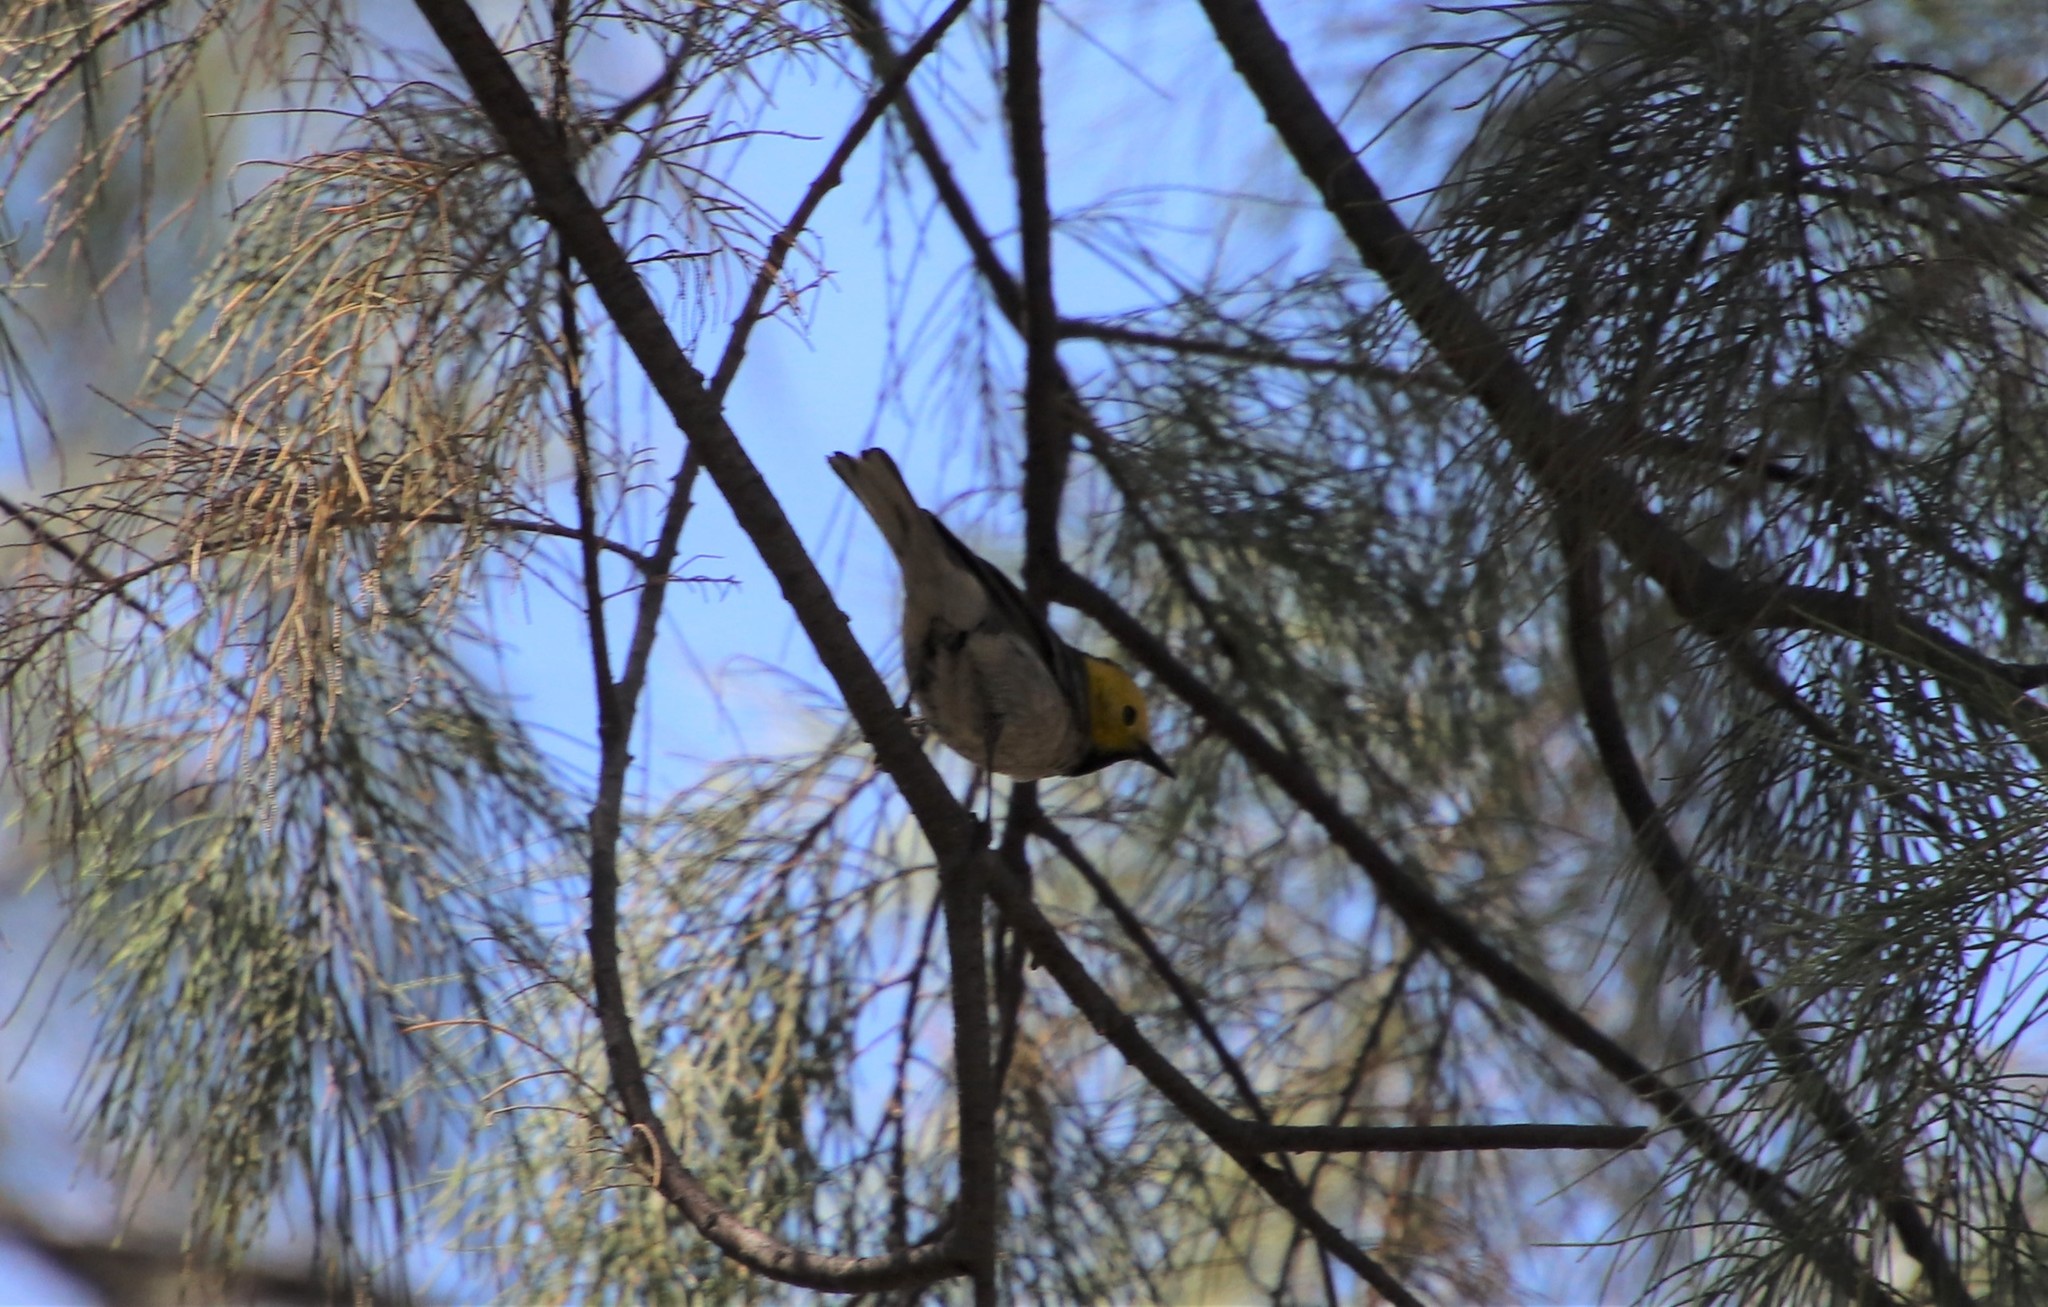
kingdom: Animalia
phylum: Chordata
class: Aves
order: Passeriformes
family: Parulidae
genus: Setophaga
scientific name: Setophaga occidentalis
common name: Hermit warbler
